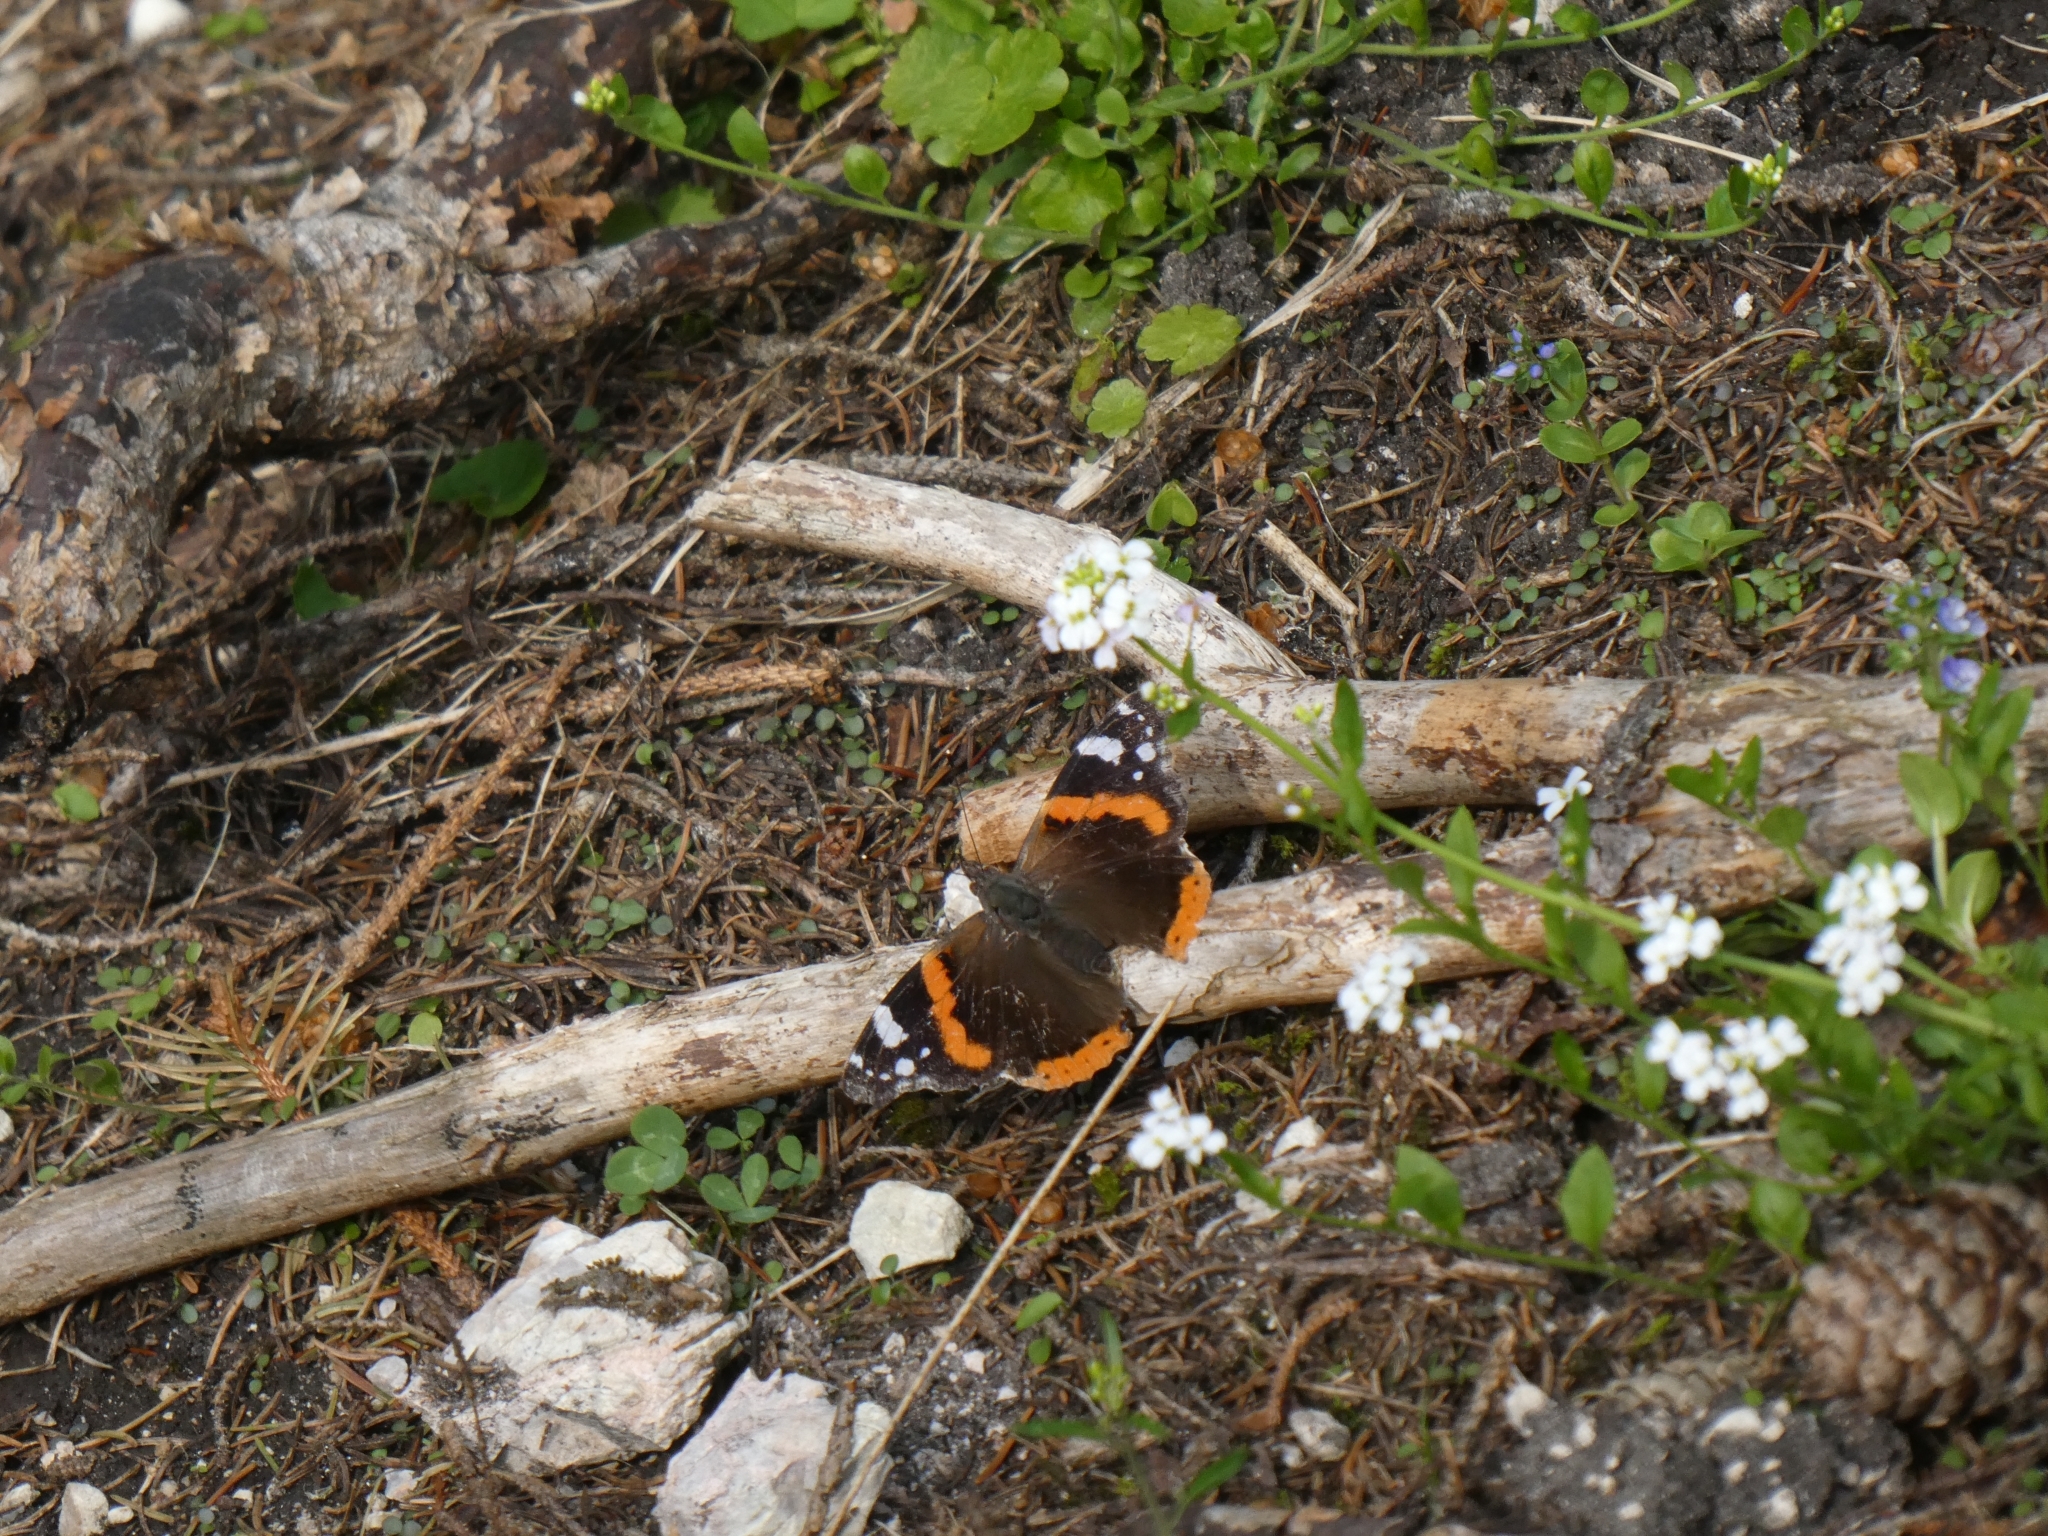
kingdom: Animalia
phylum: Arthropoda
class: Insecta
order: Lepidoptera
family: Nymphalidae
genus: Vanessa
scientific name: Vanessa atalanta
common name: Red admiral
